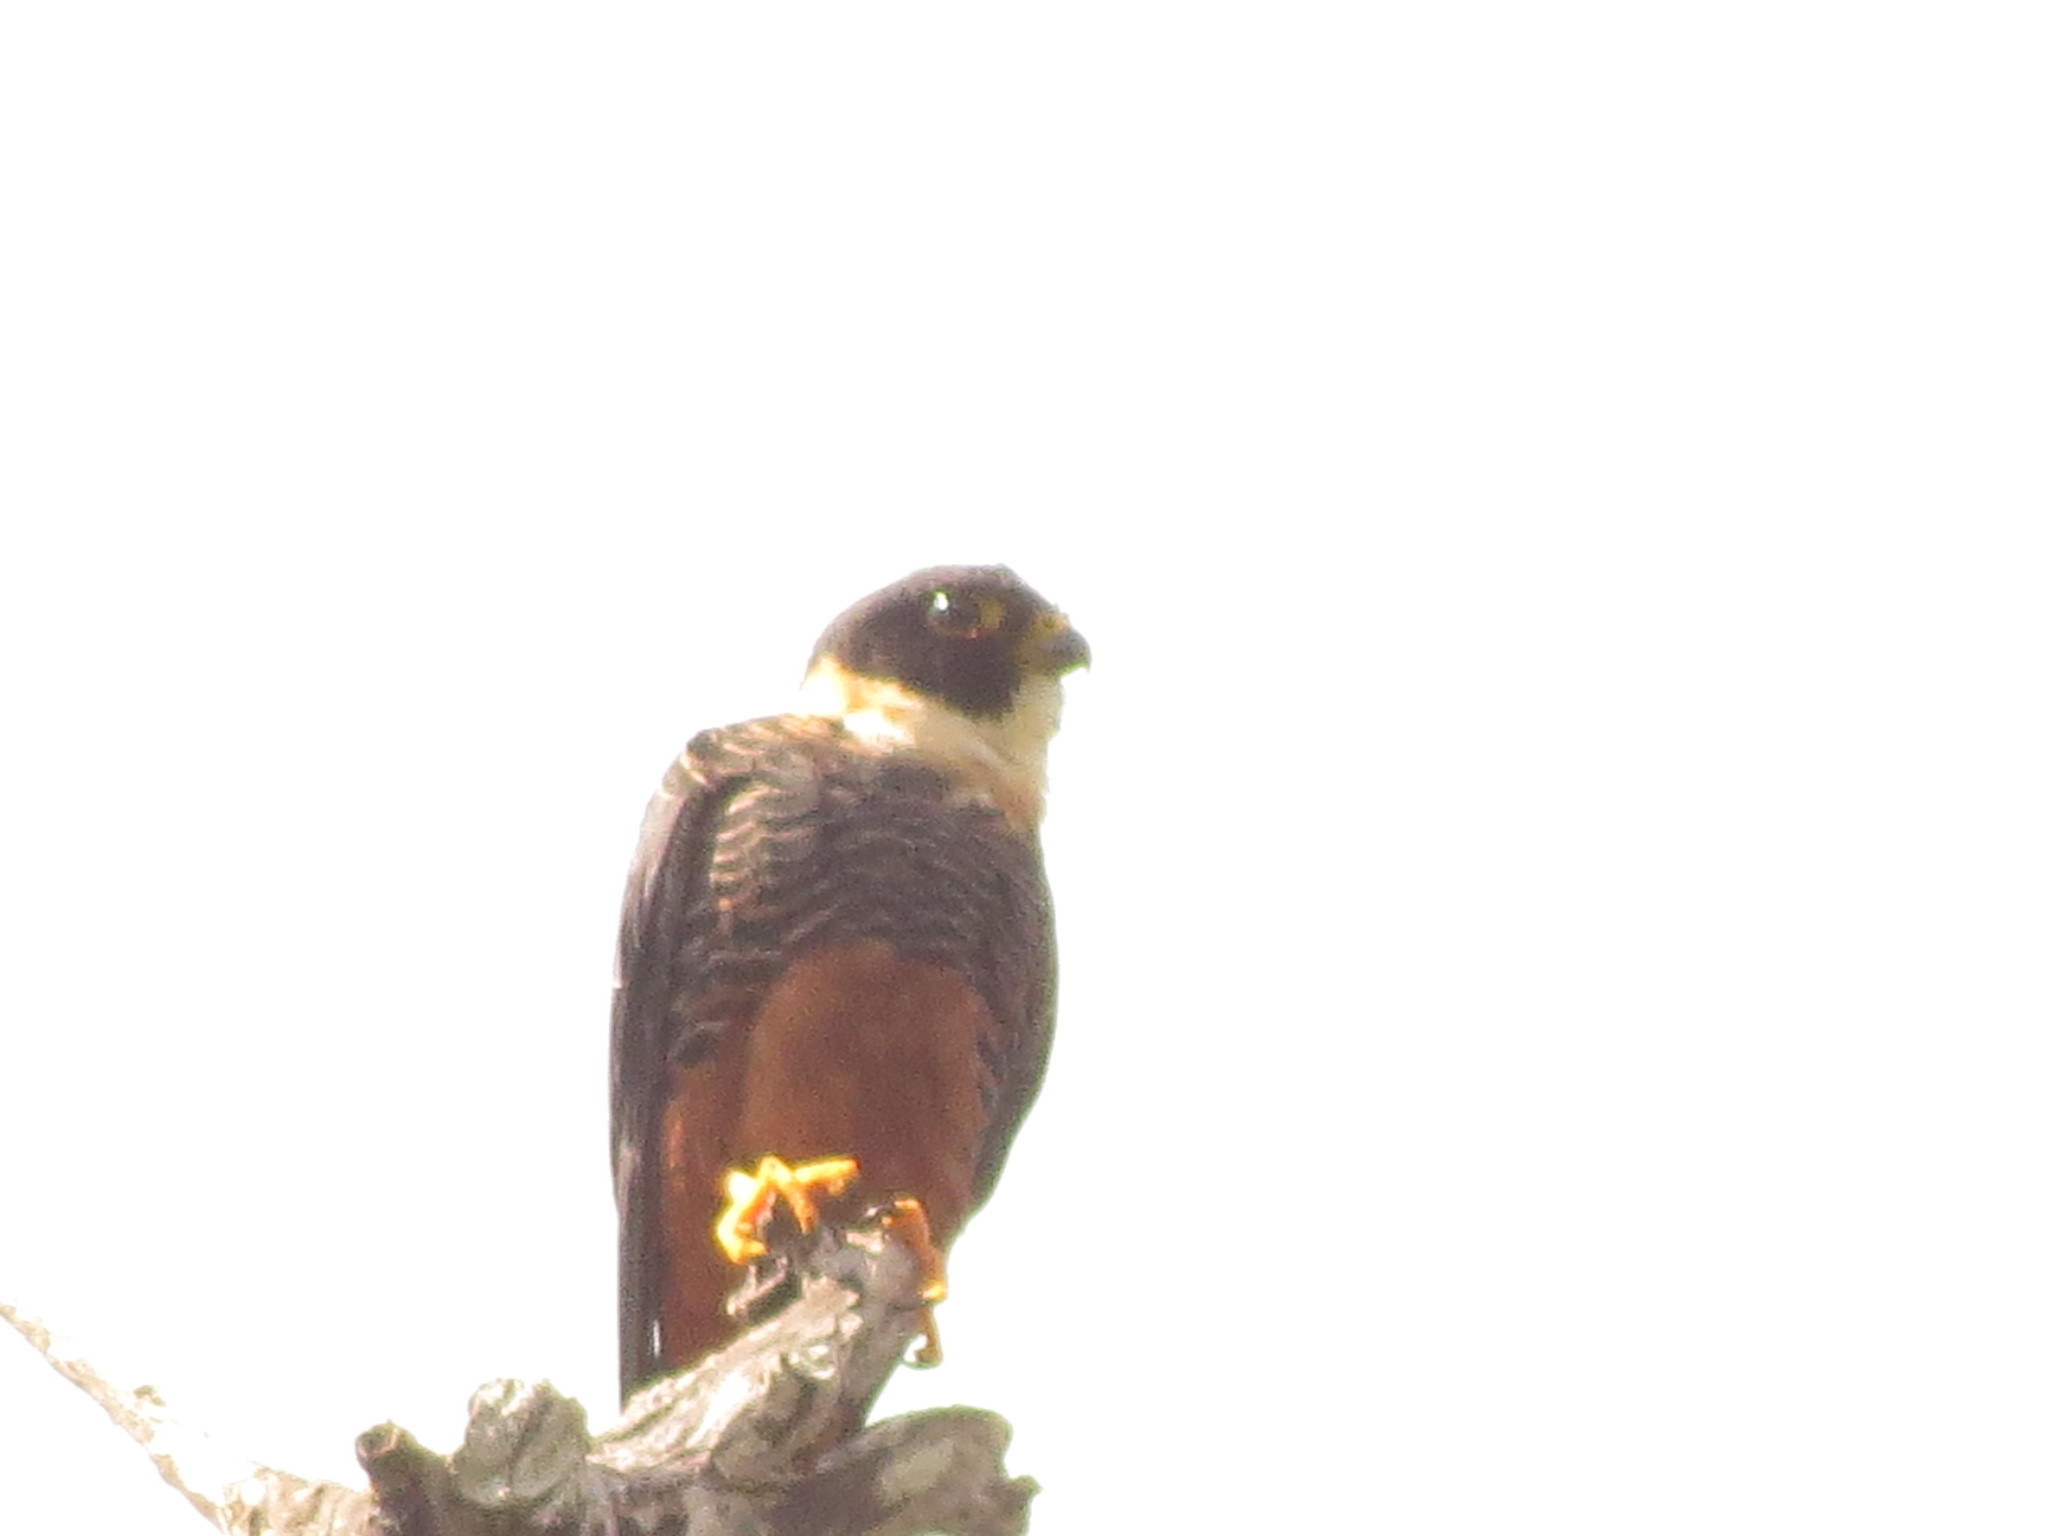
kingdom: Animalia
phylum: Chordata
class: Aves
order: Falconiformes
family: Falconidae
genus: Falco
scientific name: Falco rufigularis
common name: Bat falcon
